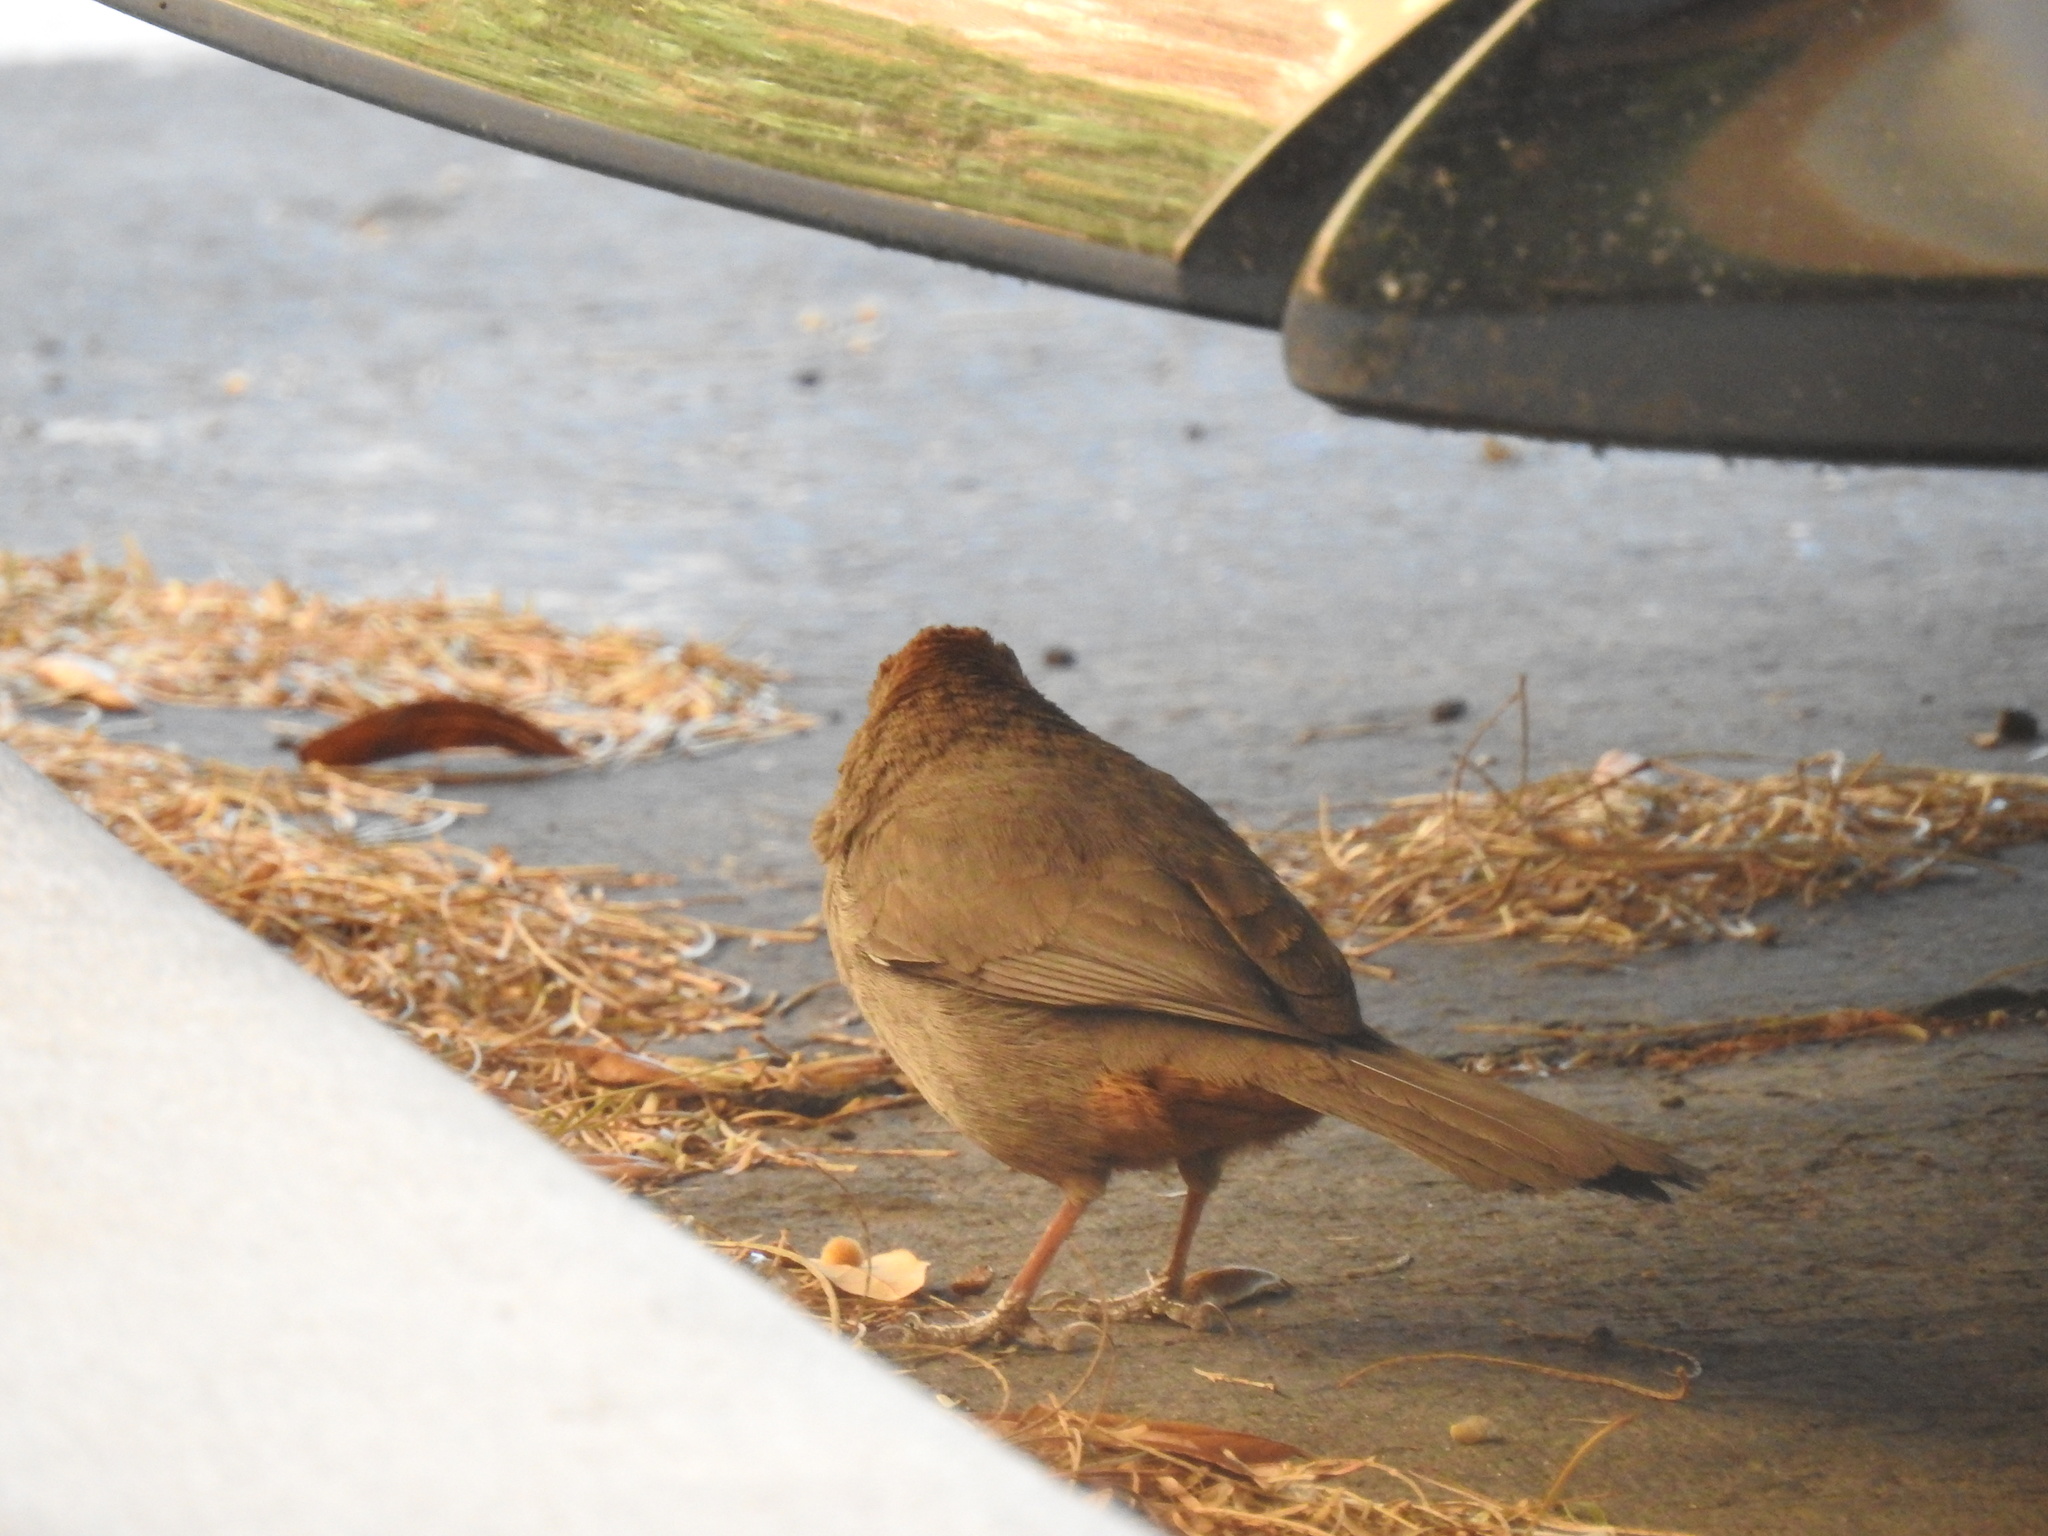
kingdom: Animalia
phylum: Chordata
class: Aves
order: Passeriformes
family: Passerellidae
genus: Melozone
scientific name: Melozone fusca
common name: Canyon towhee
